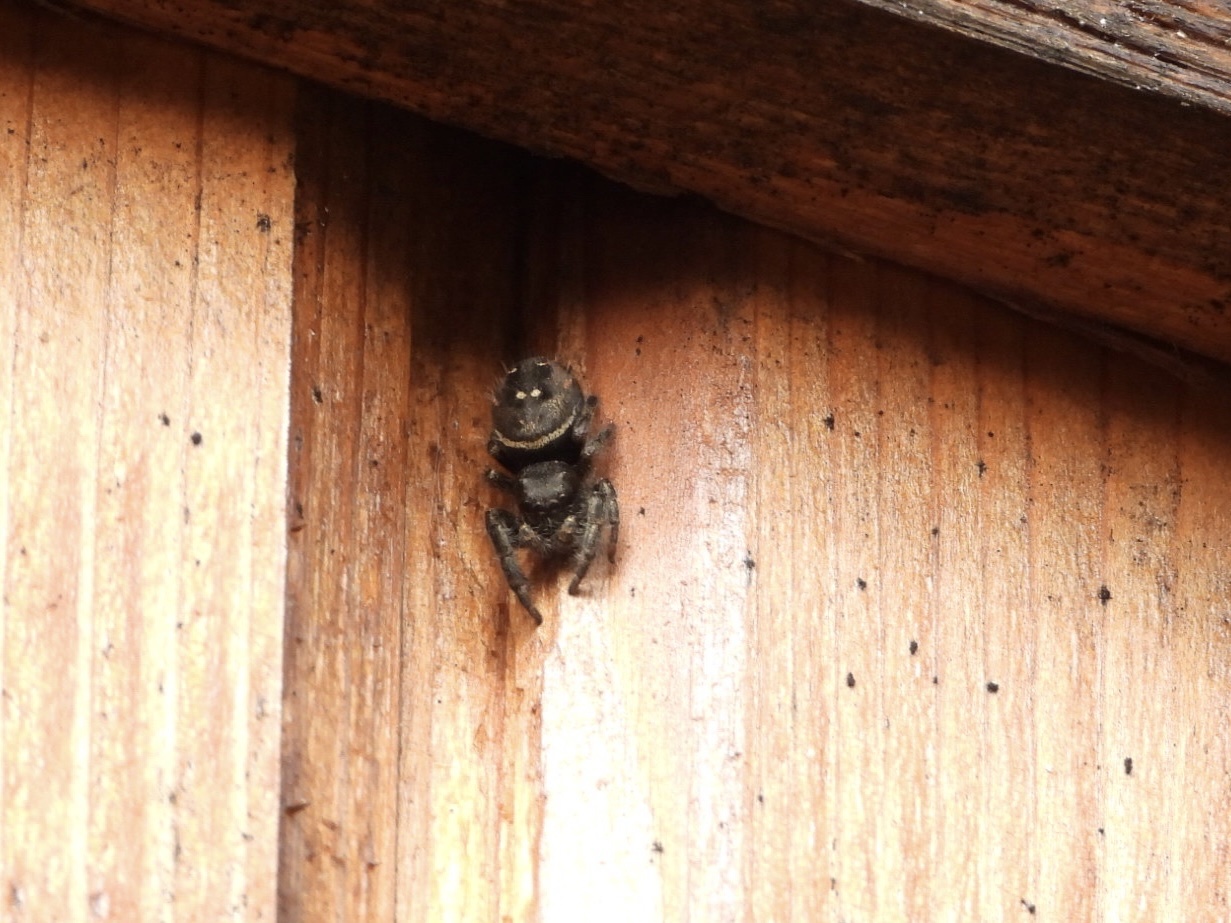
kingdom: Animalia
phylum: Arthropoda
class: Arachnida
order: Araneae
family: Salticidae
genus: Phidippus
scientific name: Phidippus johnsoni
